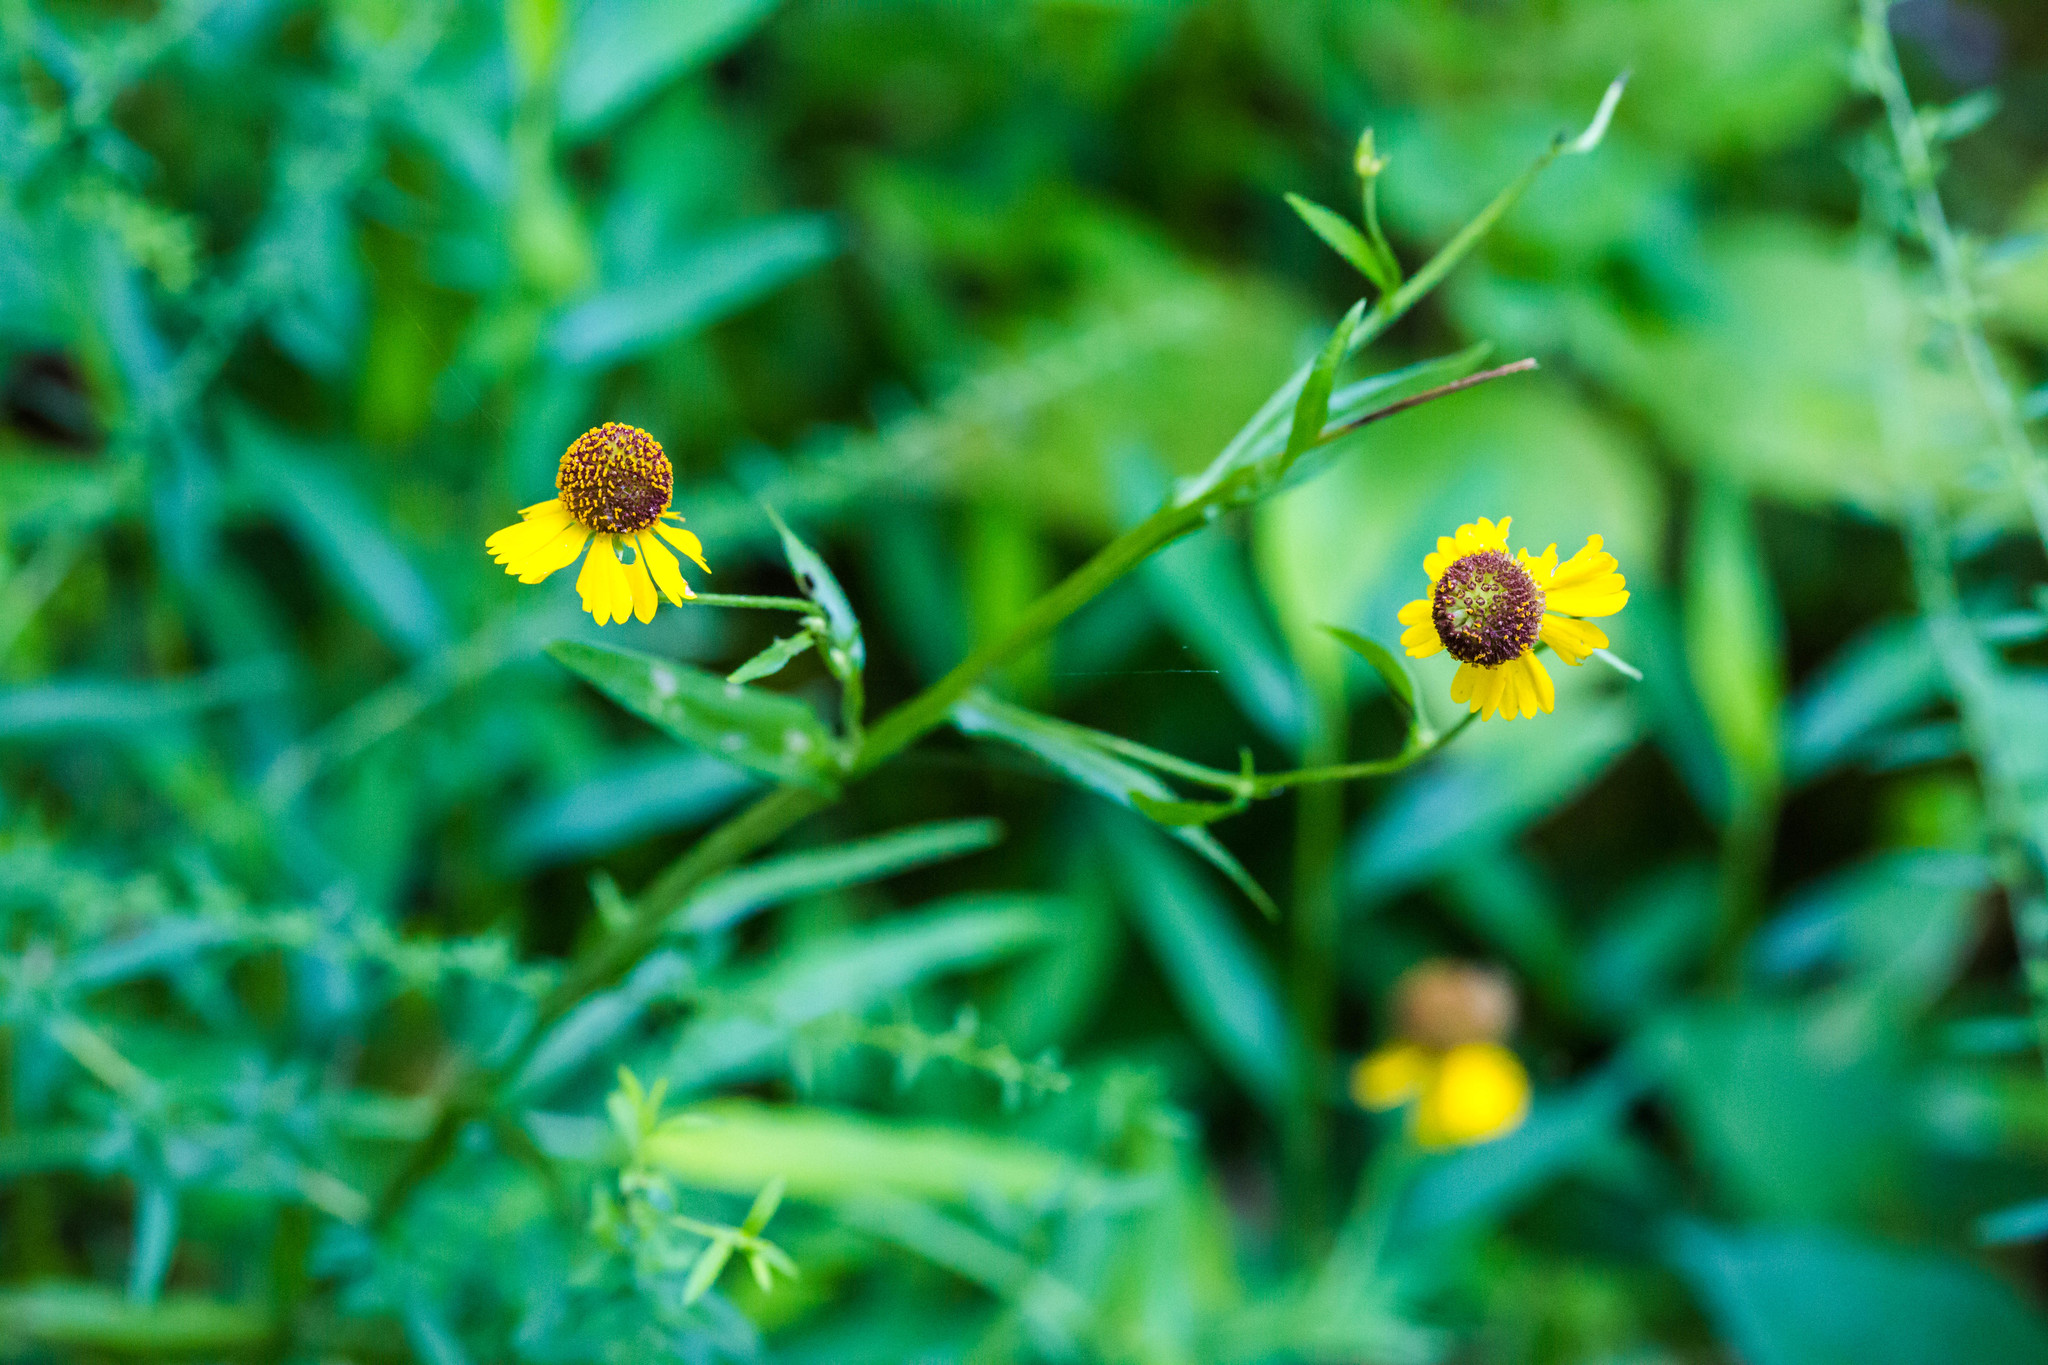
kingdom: Plantae
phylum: Tracheophyta
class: Magnoliopsida
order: Asterales
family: Asteraceae
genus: Helenium
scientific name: Helenium flexuosum
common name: Naked-flowered sneezeweed
